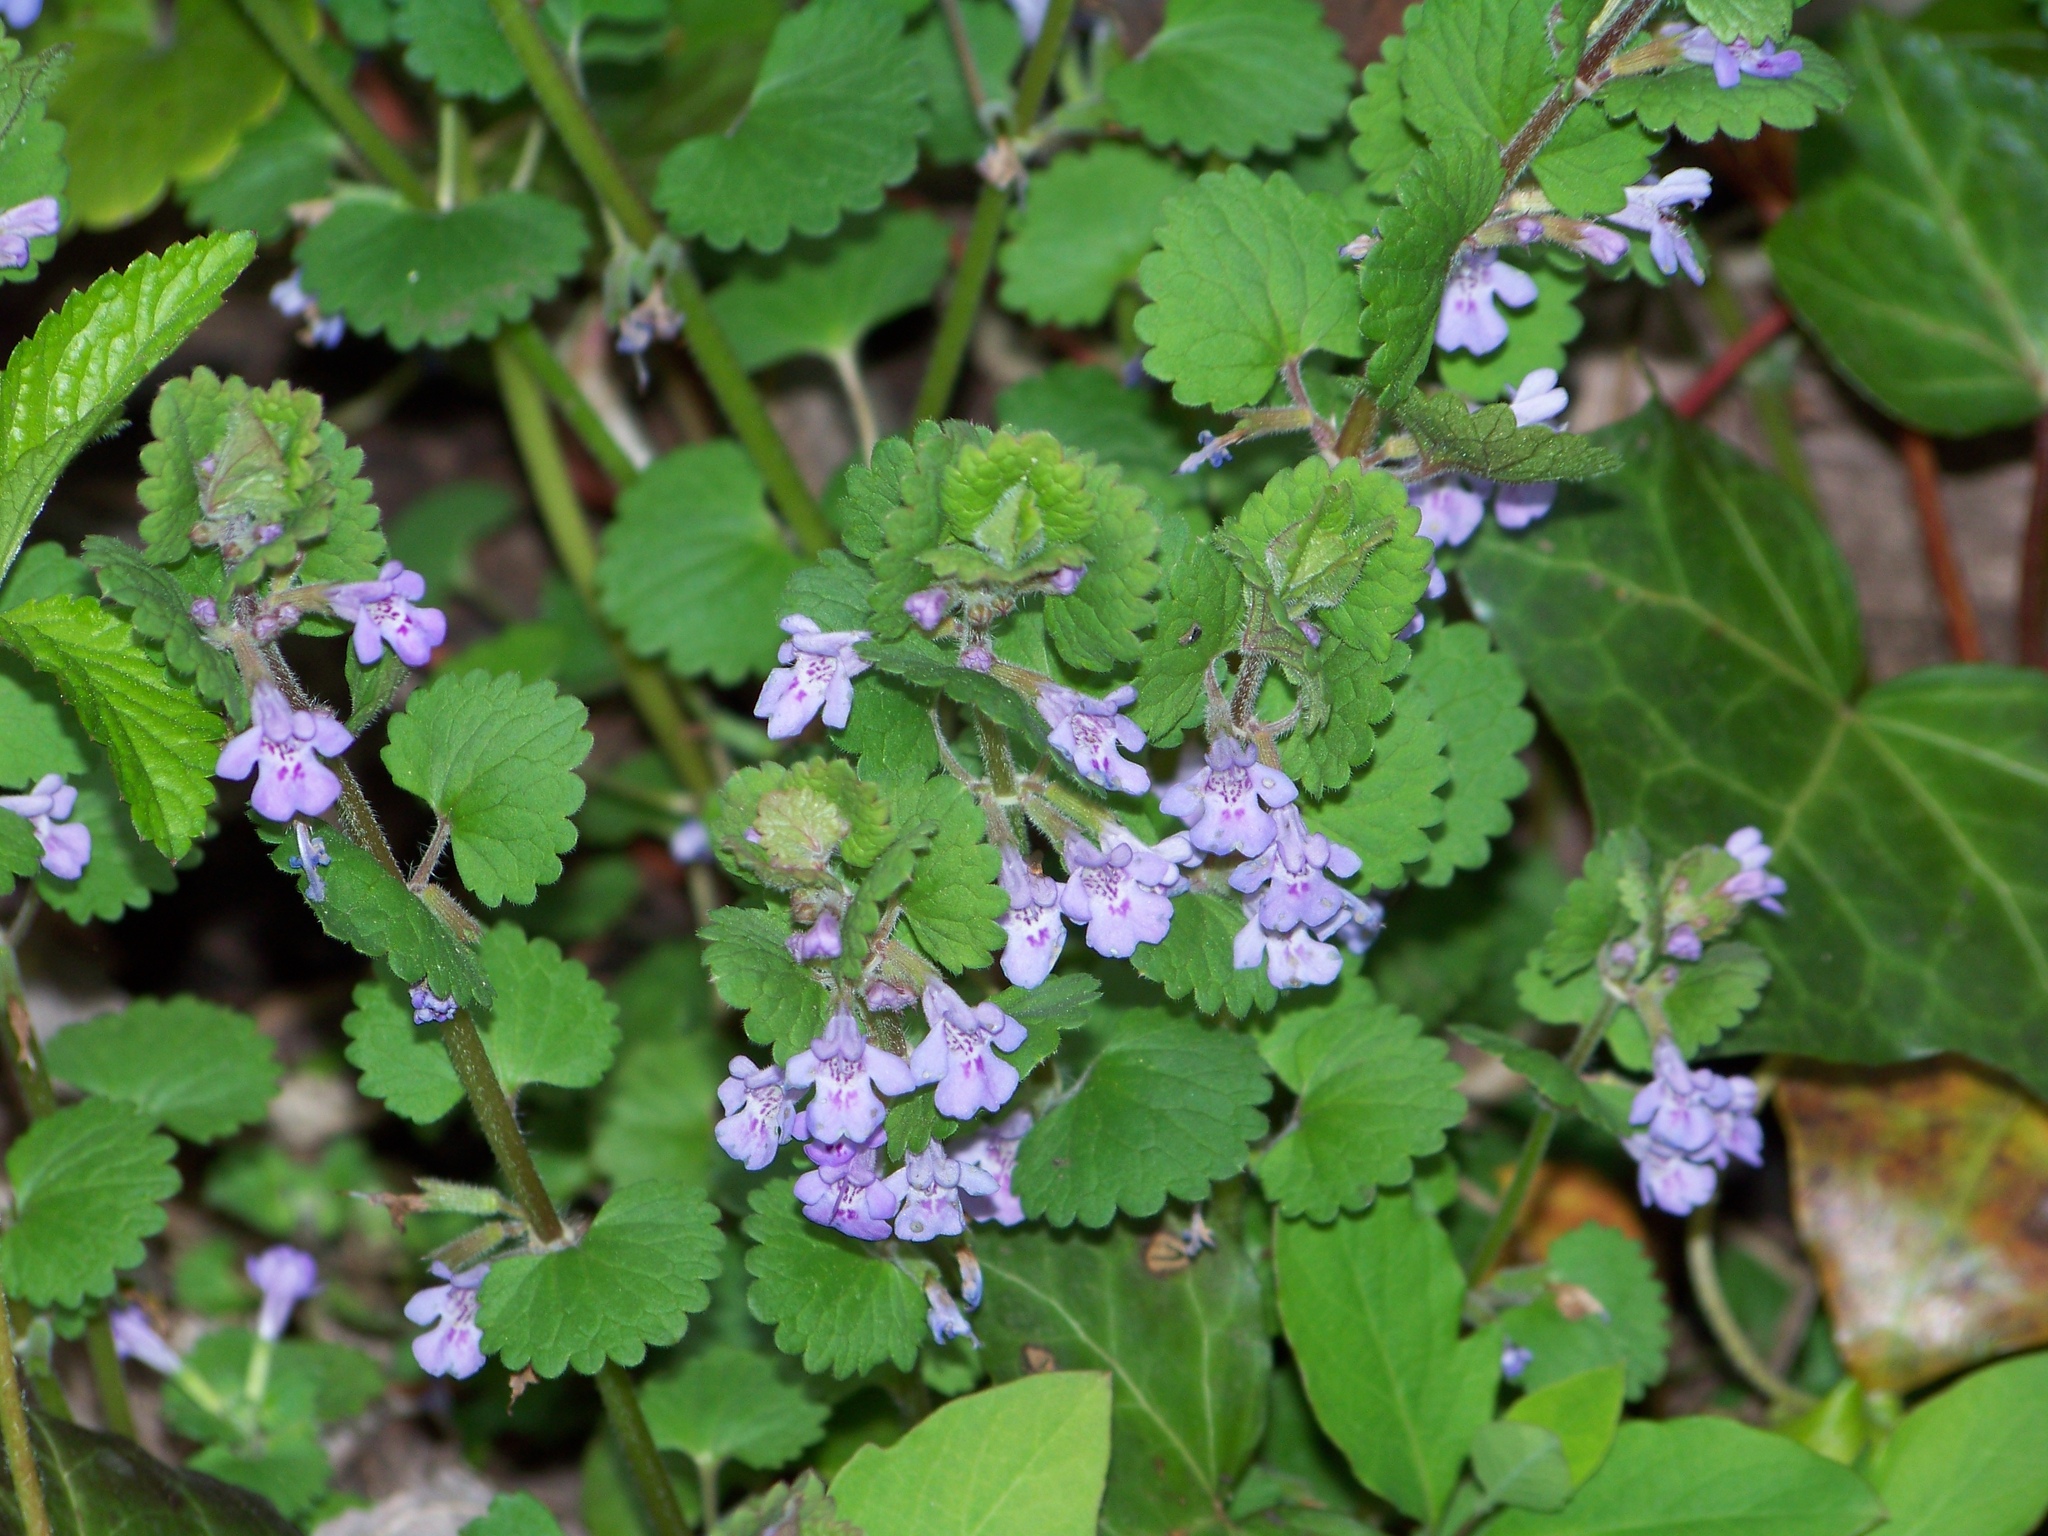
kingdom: Plantae
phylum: Tracheophyta
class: Magnoliopsida
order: Lamiales
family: Lamiaceae
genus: Glechoma
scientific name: Glechoma hederacea
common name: Ground ivy
